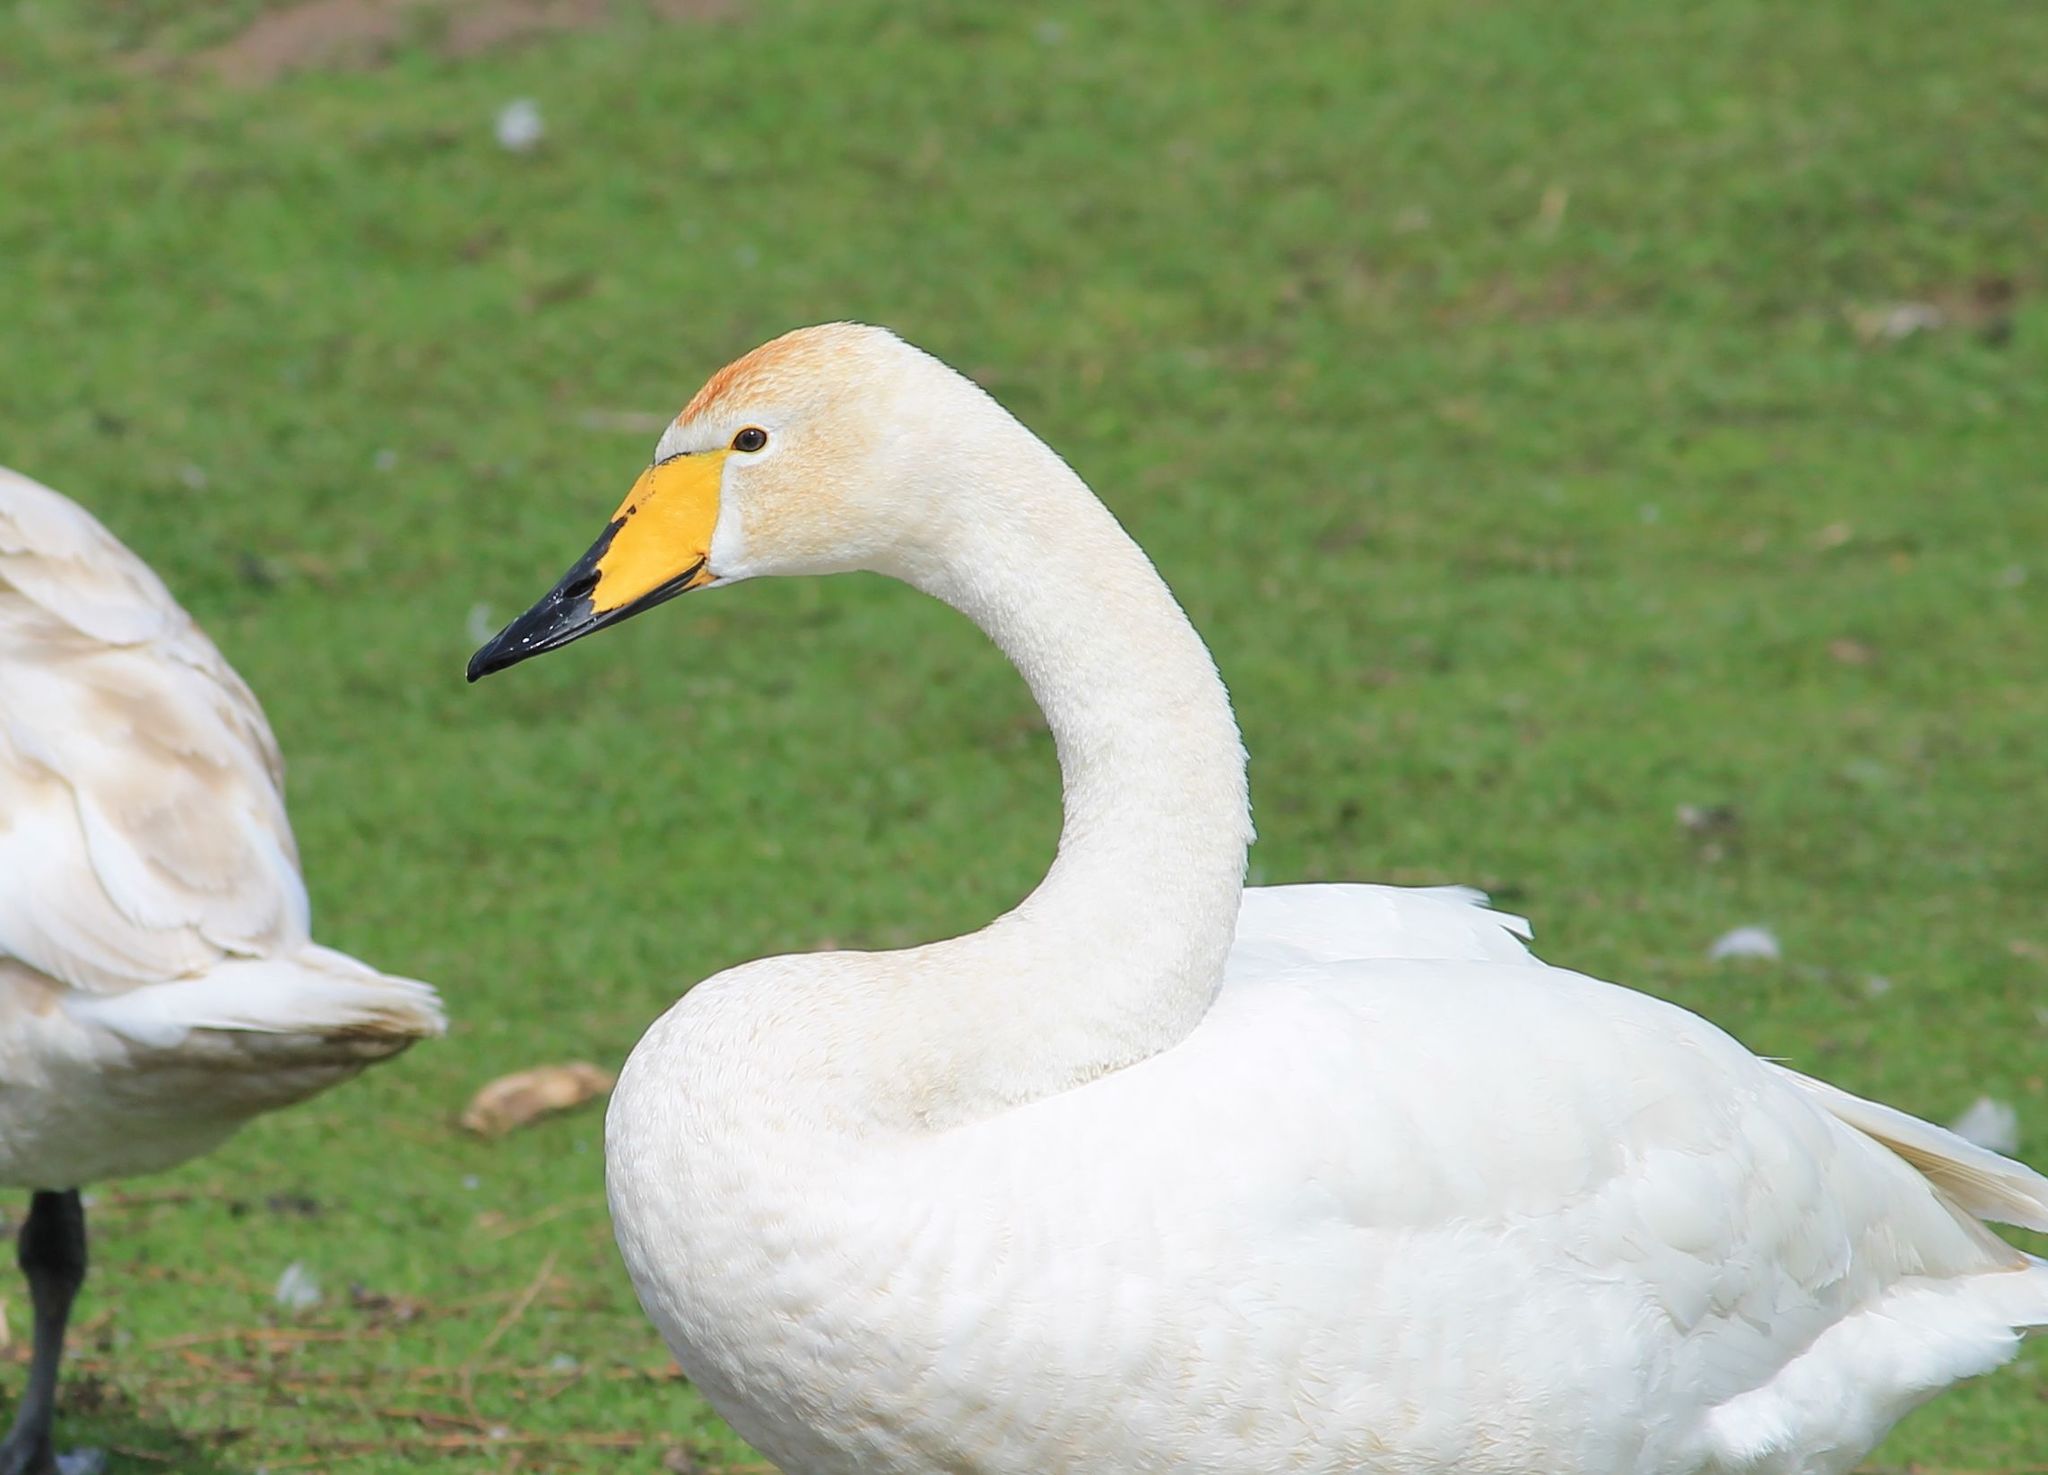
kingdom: Animalia
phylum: Chordata
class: Aves
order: Anseriformes
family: Anatidae
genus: Cygnus
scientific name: Cygnus cygnus
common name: Whooper swan
